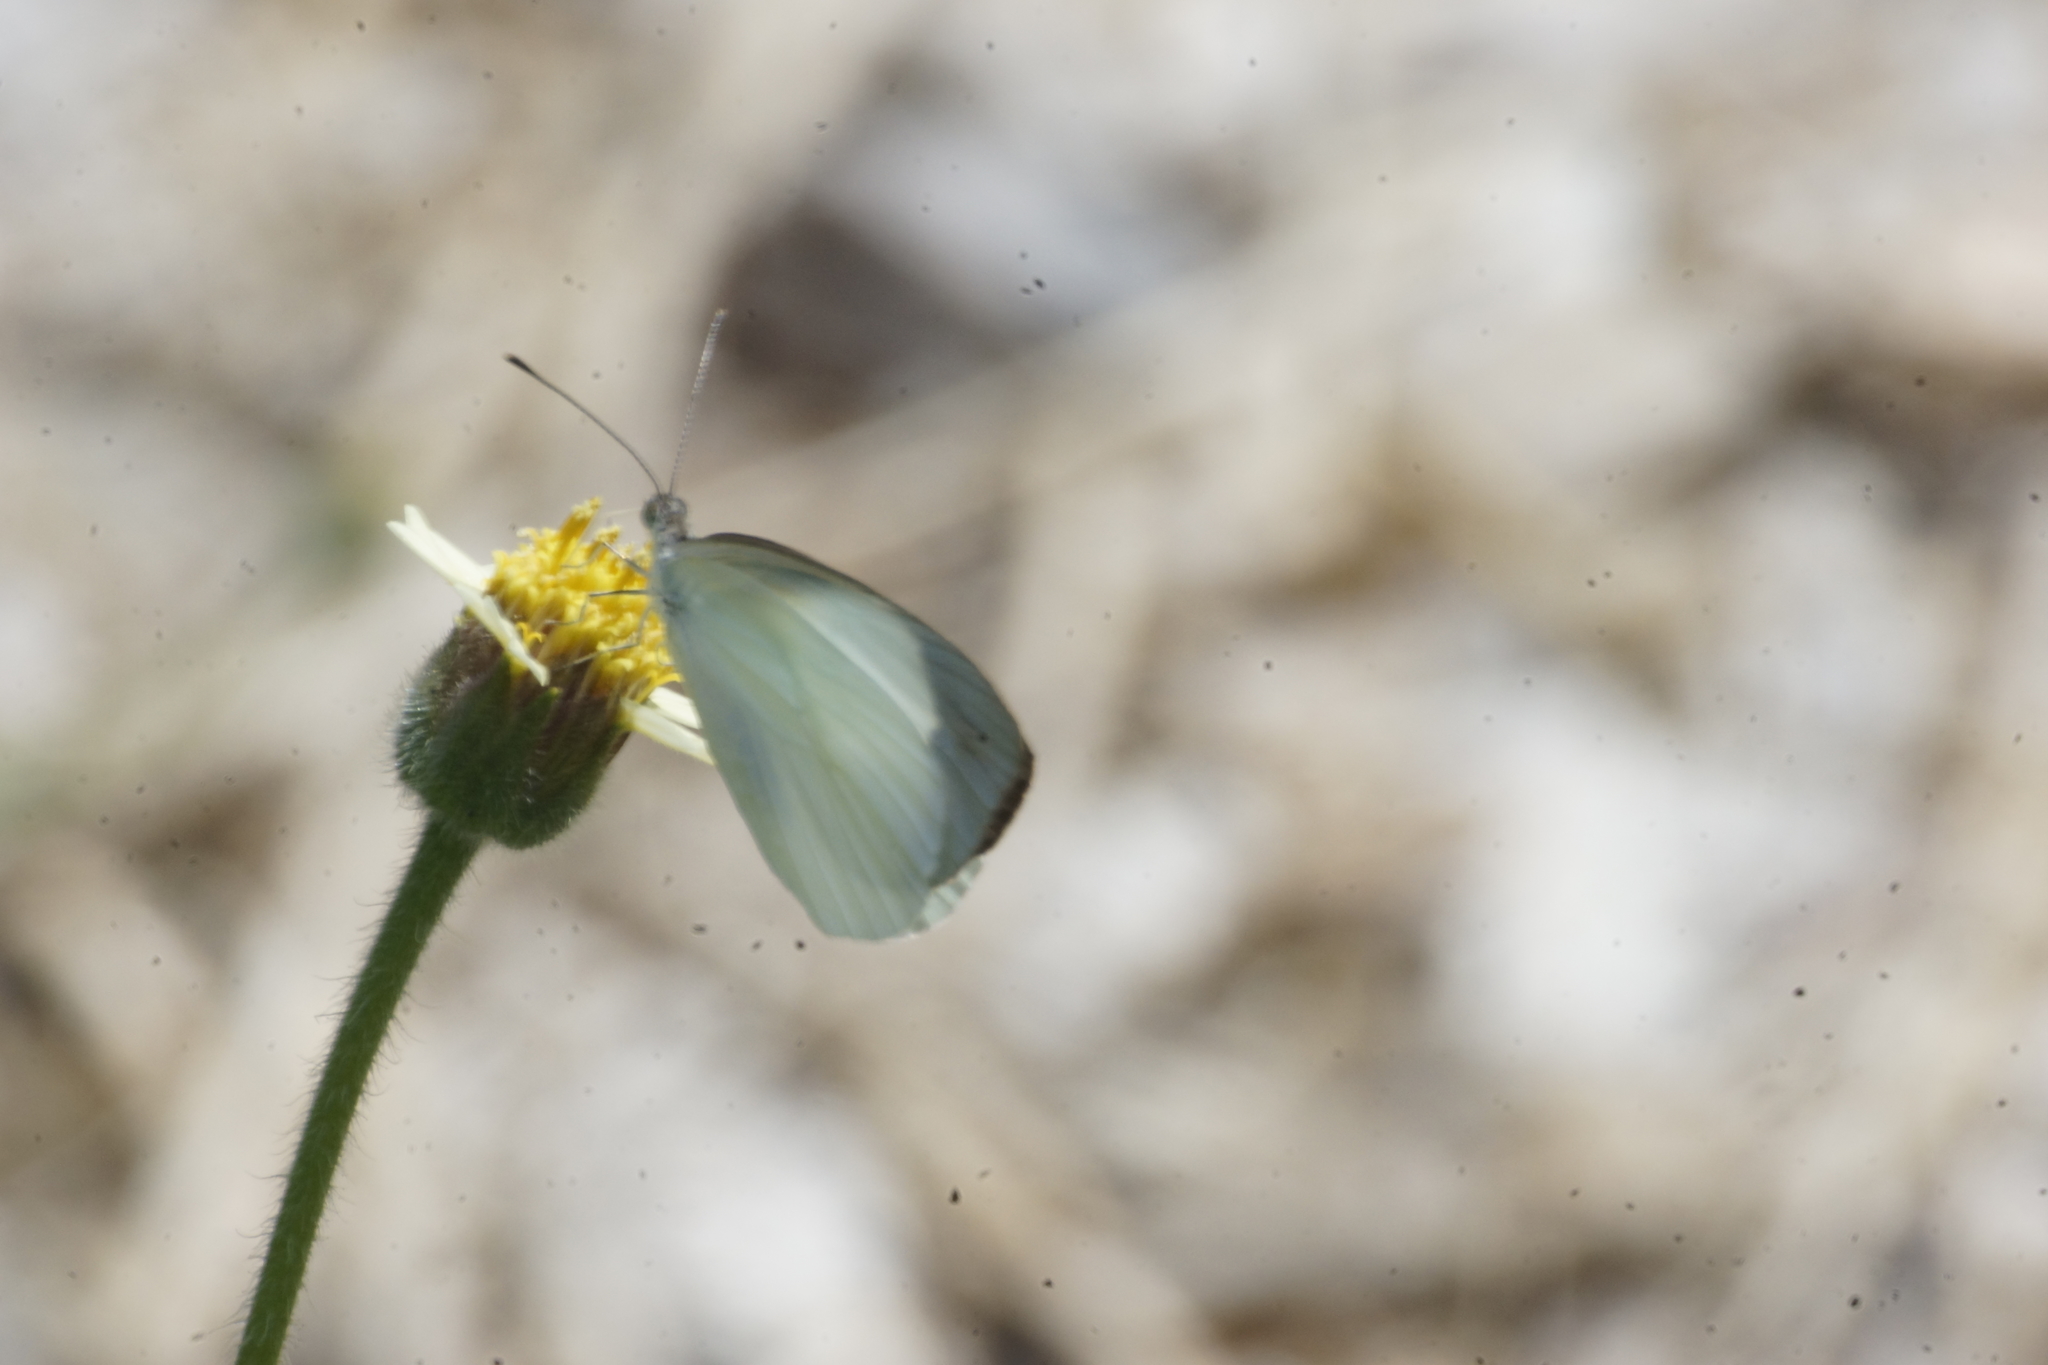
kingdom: Animalia
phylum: Arthropoda
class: Insecta
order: Lepidoptera
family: Pieridae
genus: Elodina
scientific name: Elodina walkeri
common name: Small pearl-white
